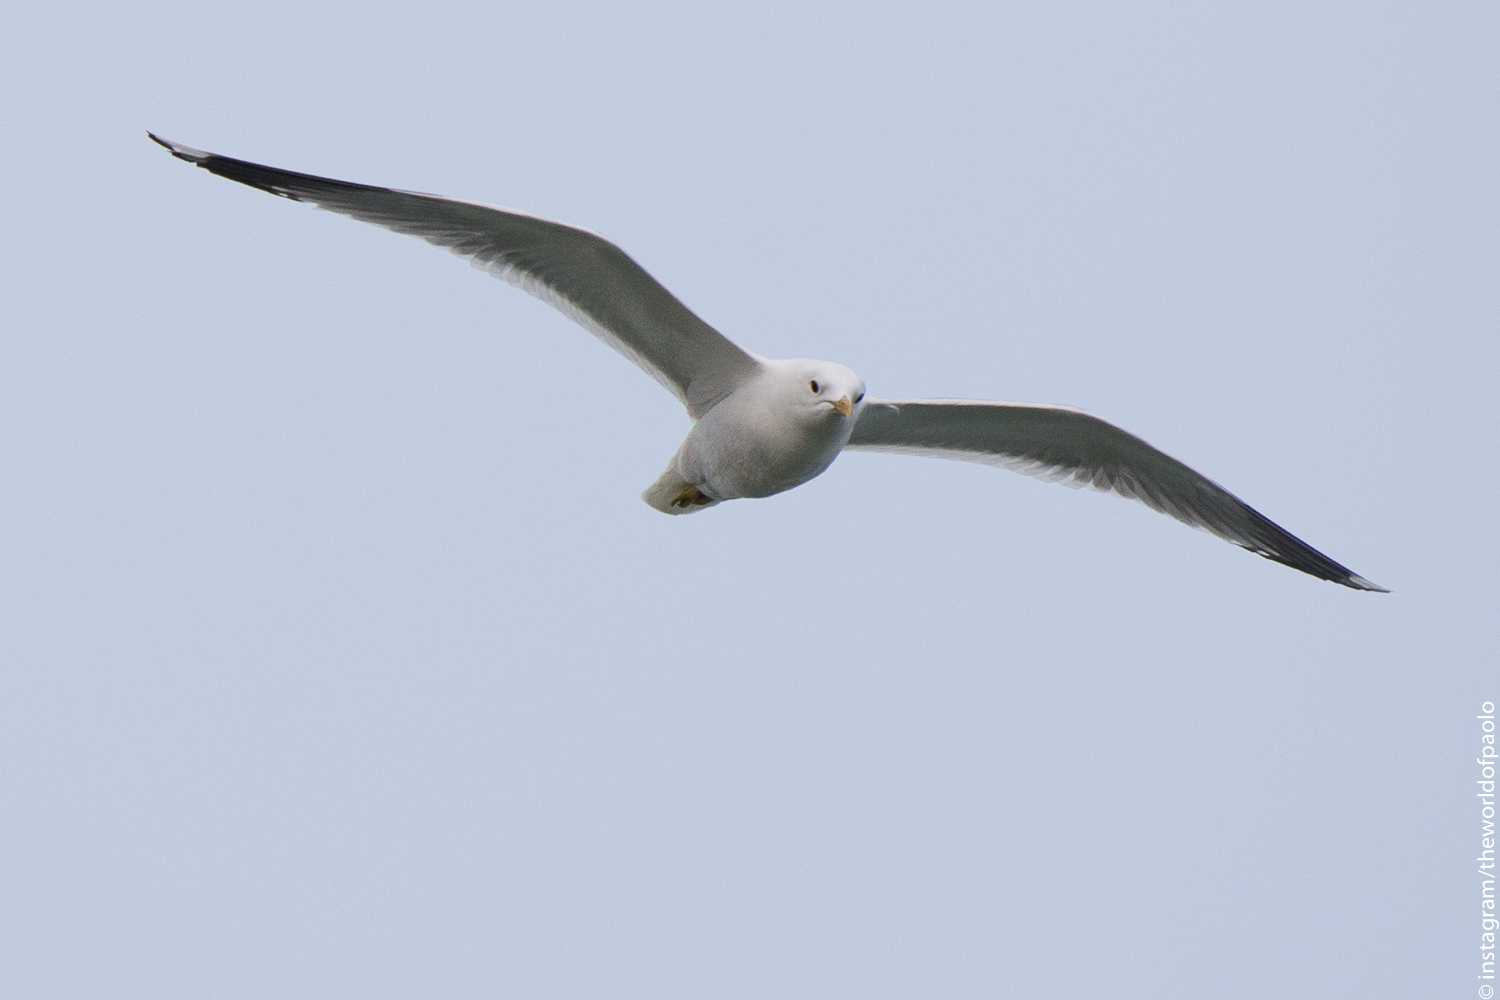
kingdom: Animalia
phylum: Chordata
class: Aves
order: Charadriiformes
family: Laridae
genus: Larus
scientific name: Larus canus
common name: Mew gull
